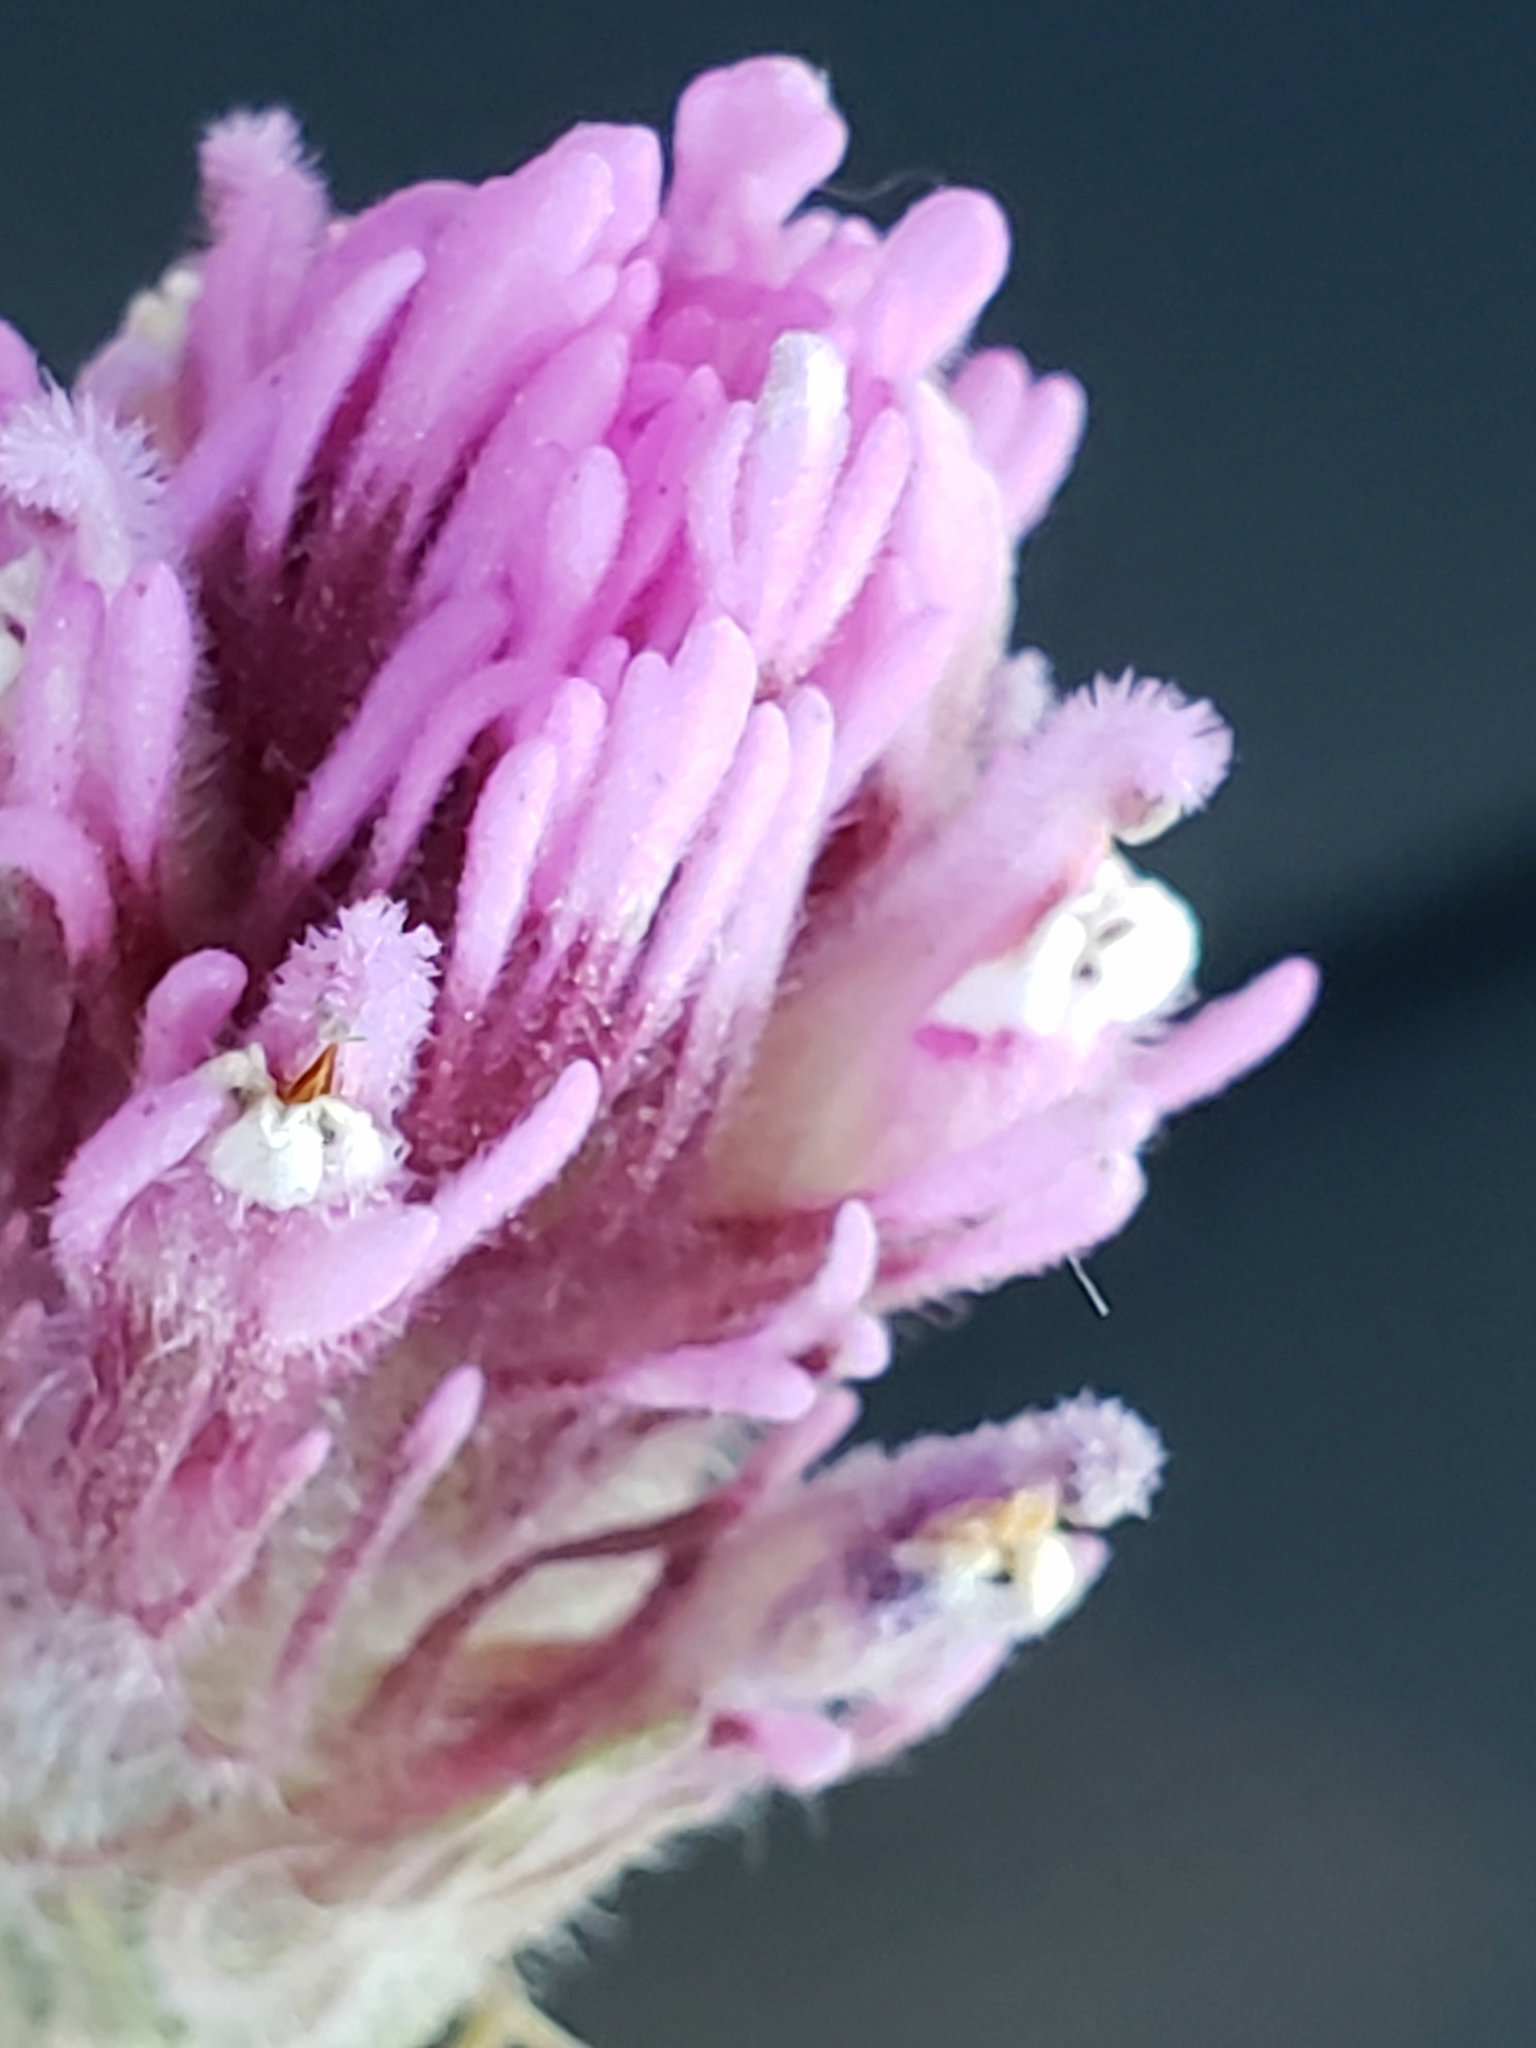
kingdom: Plantae
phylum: Tracheophyta
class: Magnoliopsida
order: Lamiales
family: Orobanchaceae
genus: Castilleja
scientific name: Castilleja exserta
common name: Purple owl-clover
